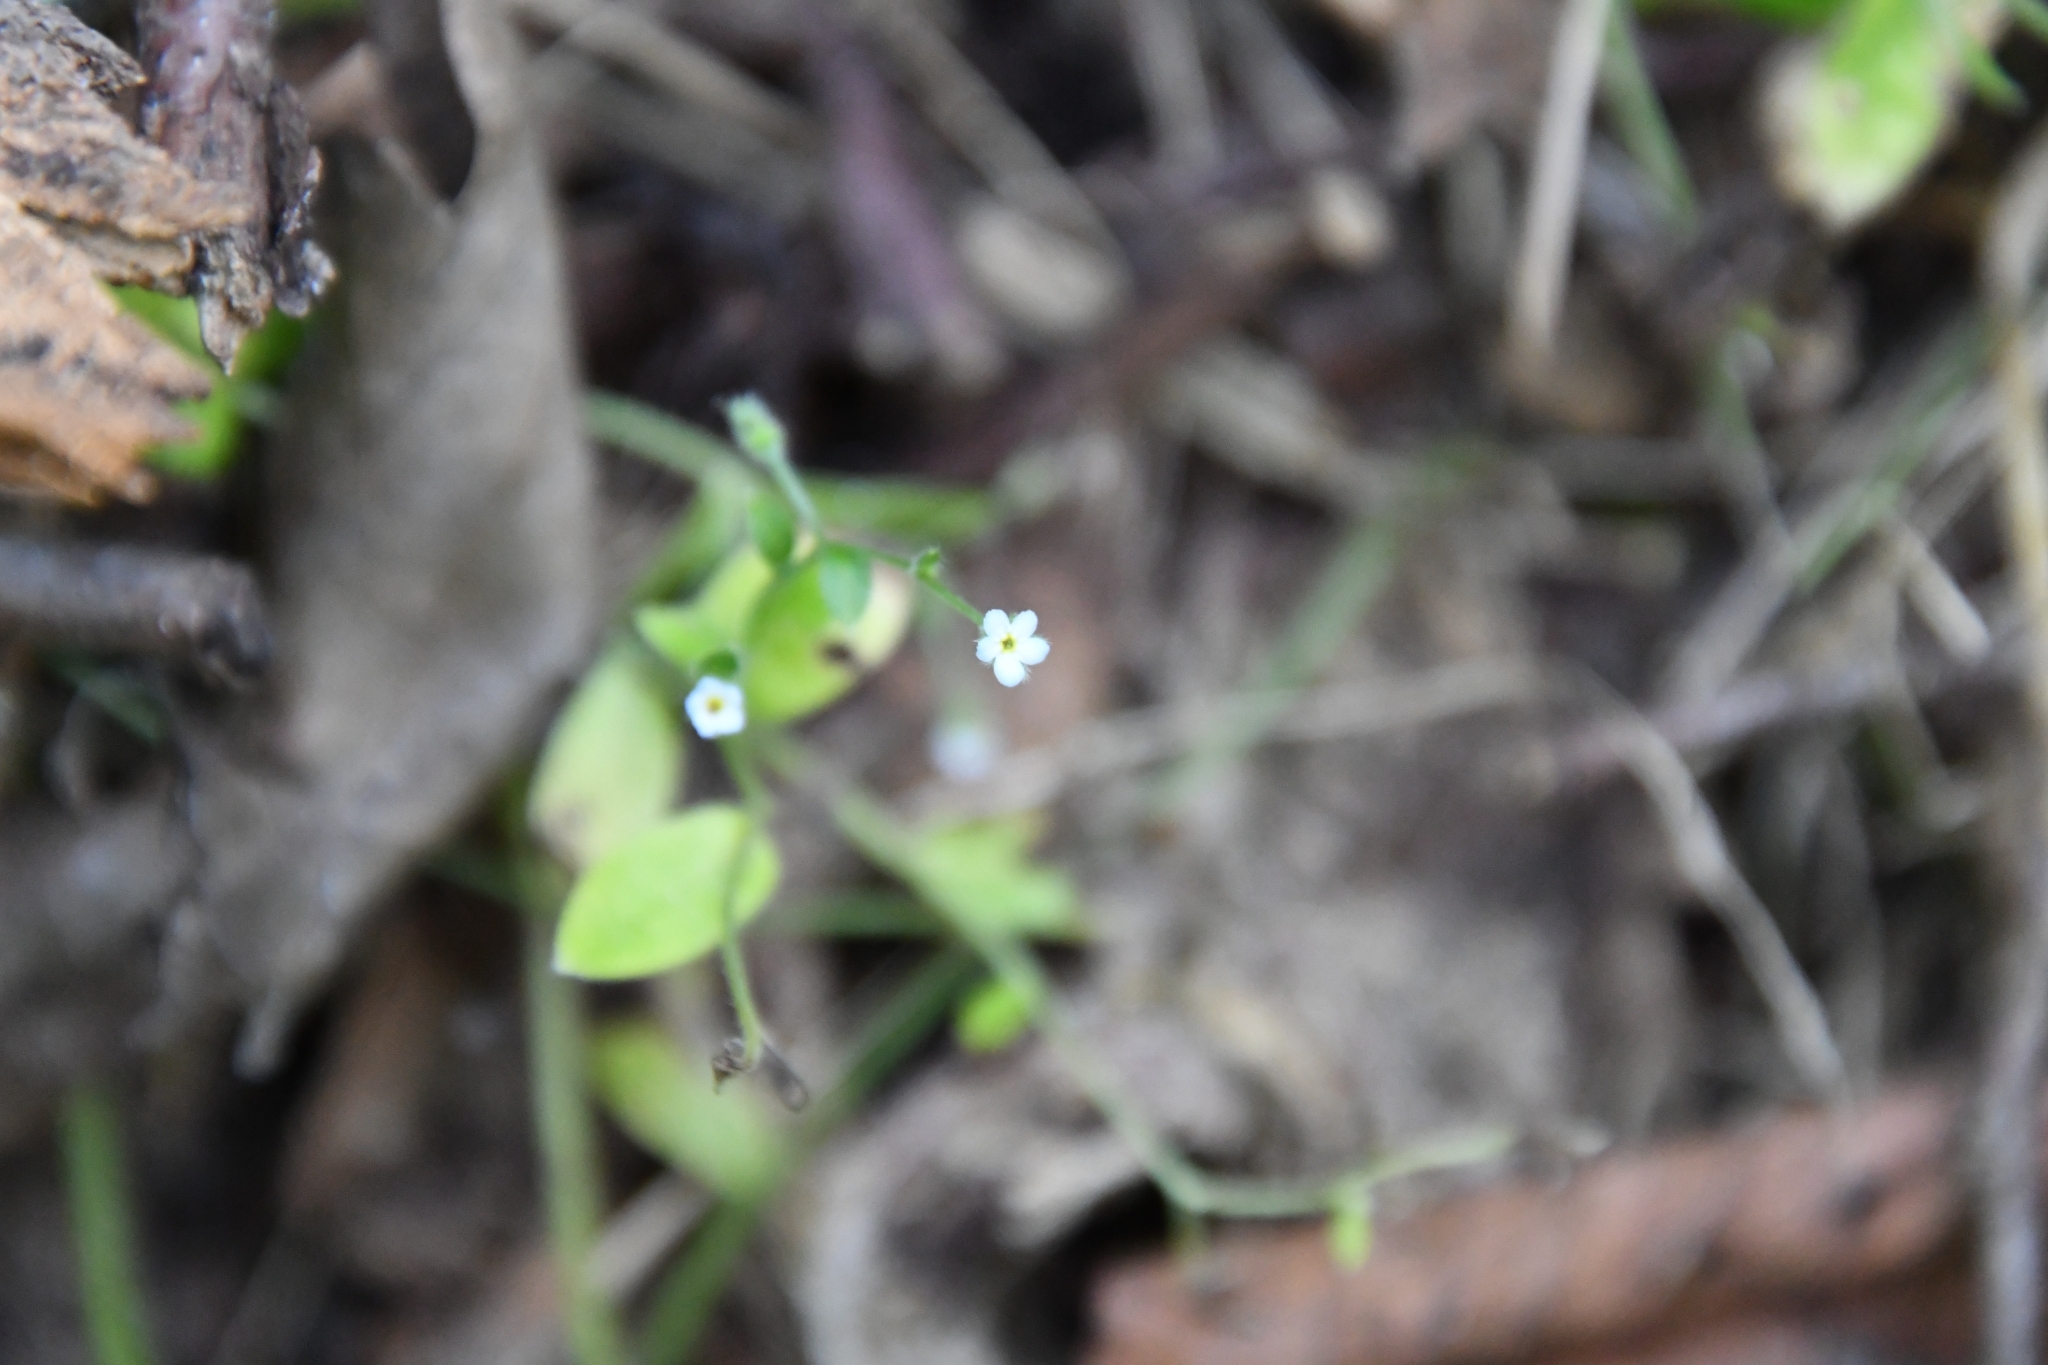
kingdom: Plantae
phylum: Tracheophyta
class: Magnoliopsida
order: Boraginales
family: Boraginaceae
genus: Myosotis
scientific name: Myosotis sparsiflora
